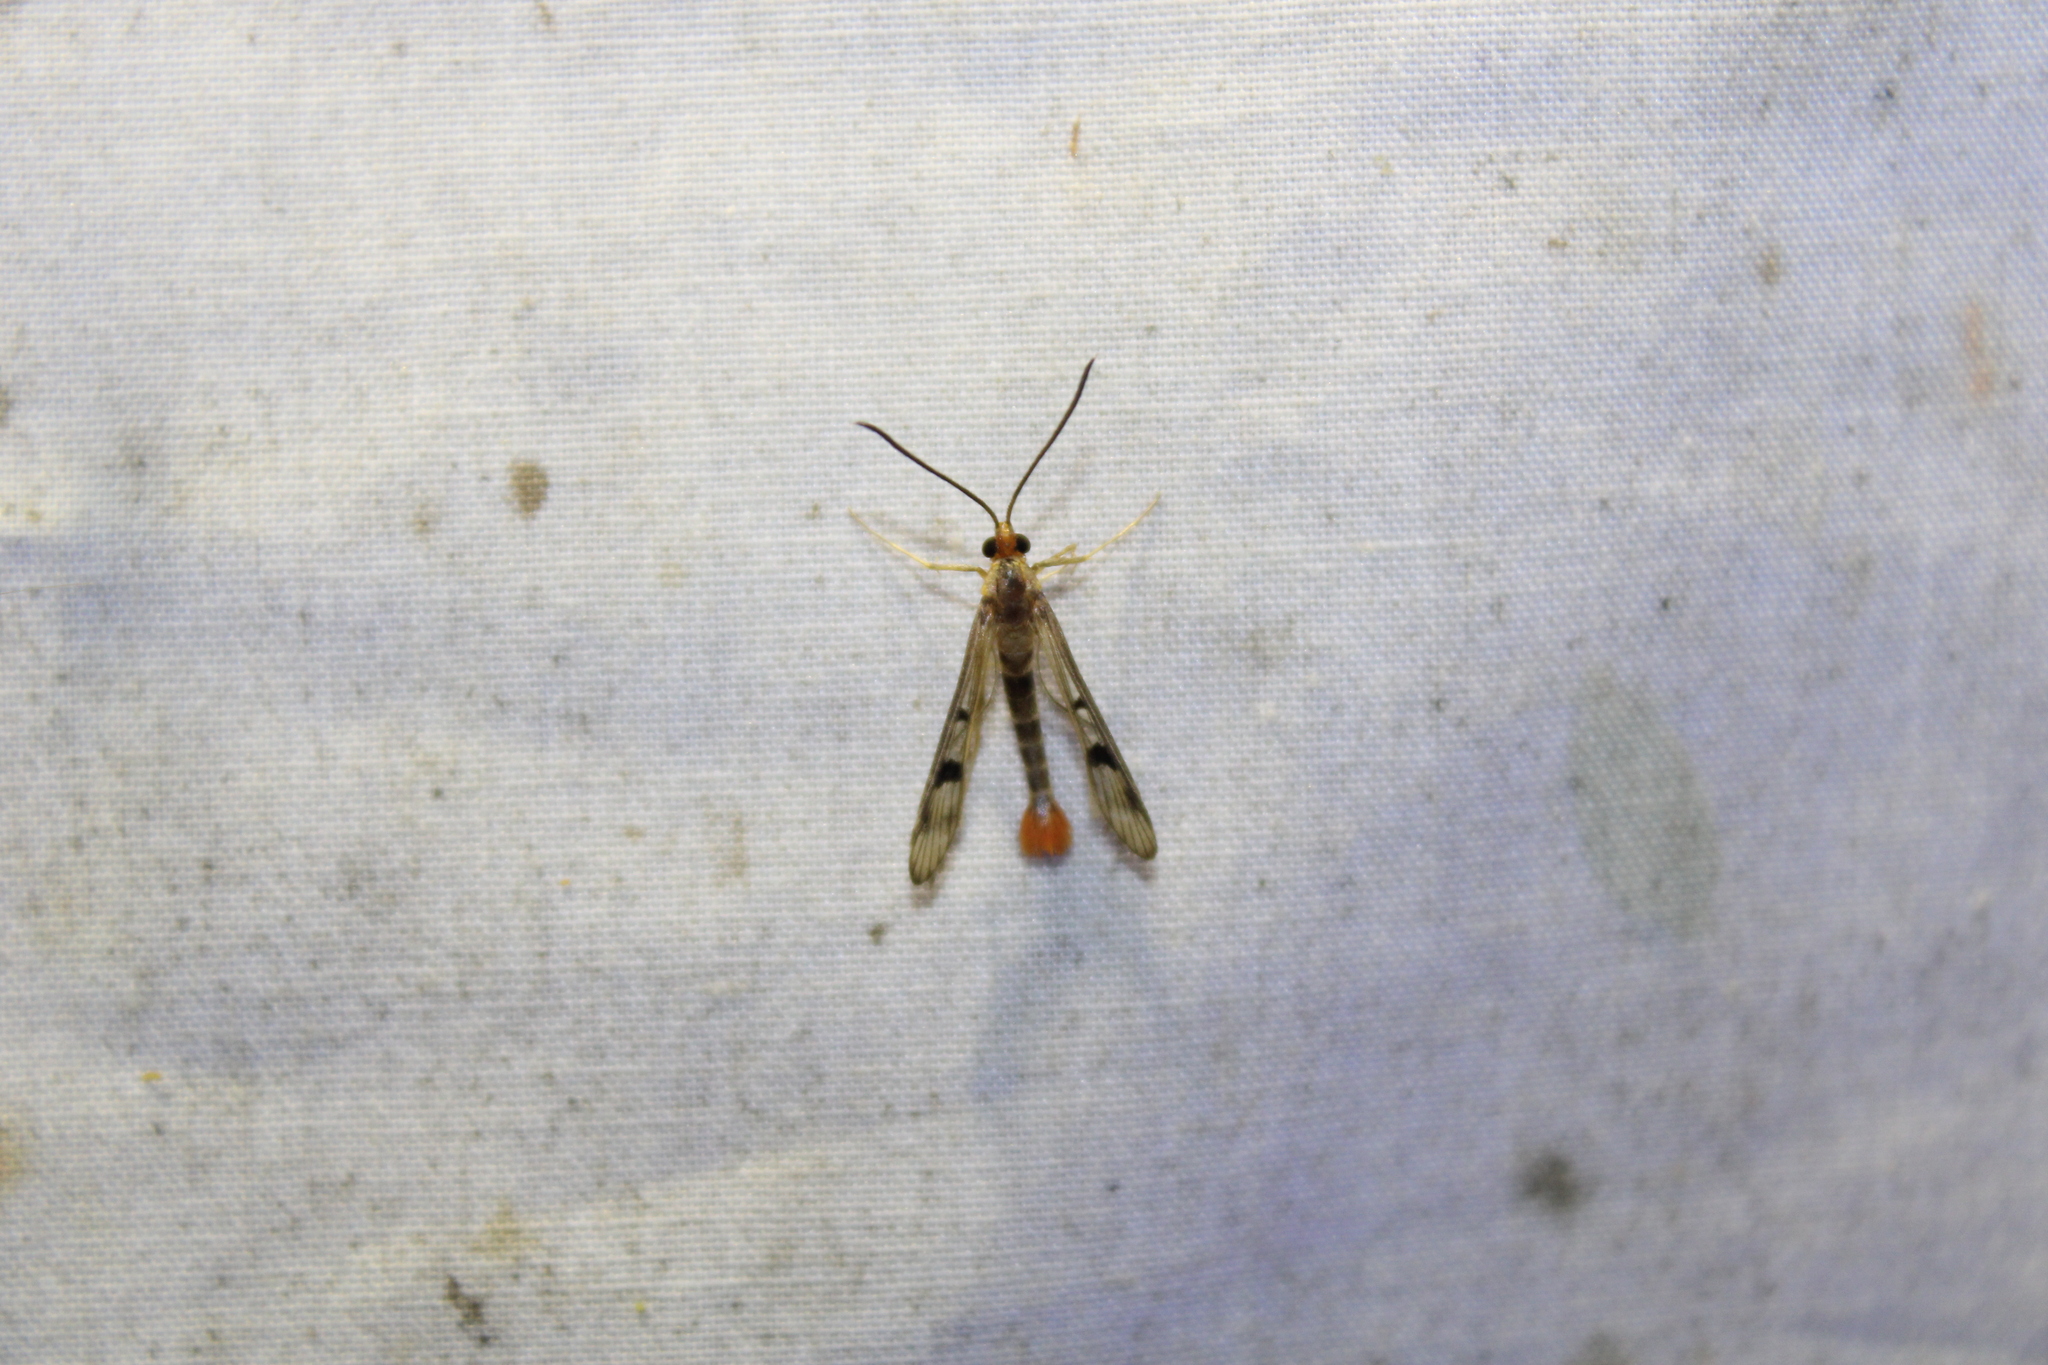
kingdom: Animalia
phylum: Arthropoda
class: Insecta
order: Lepidoptera
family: Sesiidae
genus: Synanthedon
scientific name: Synanthedon acerni
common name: Maple callus borer moth
